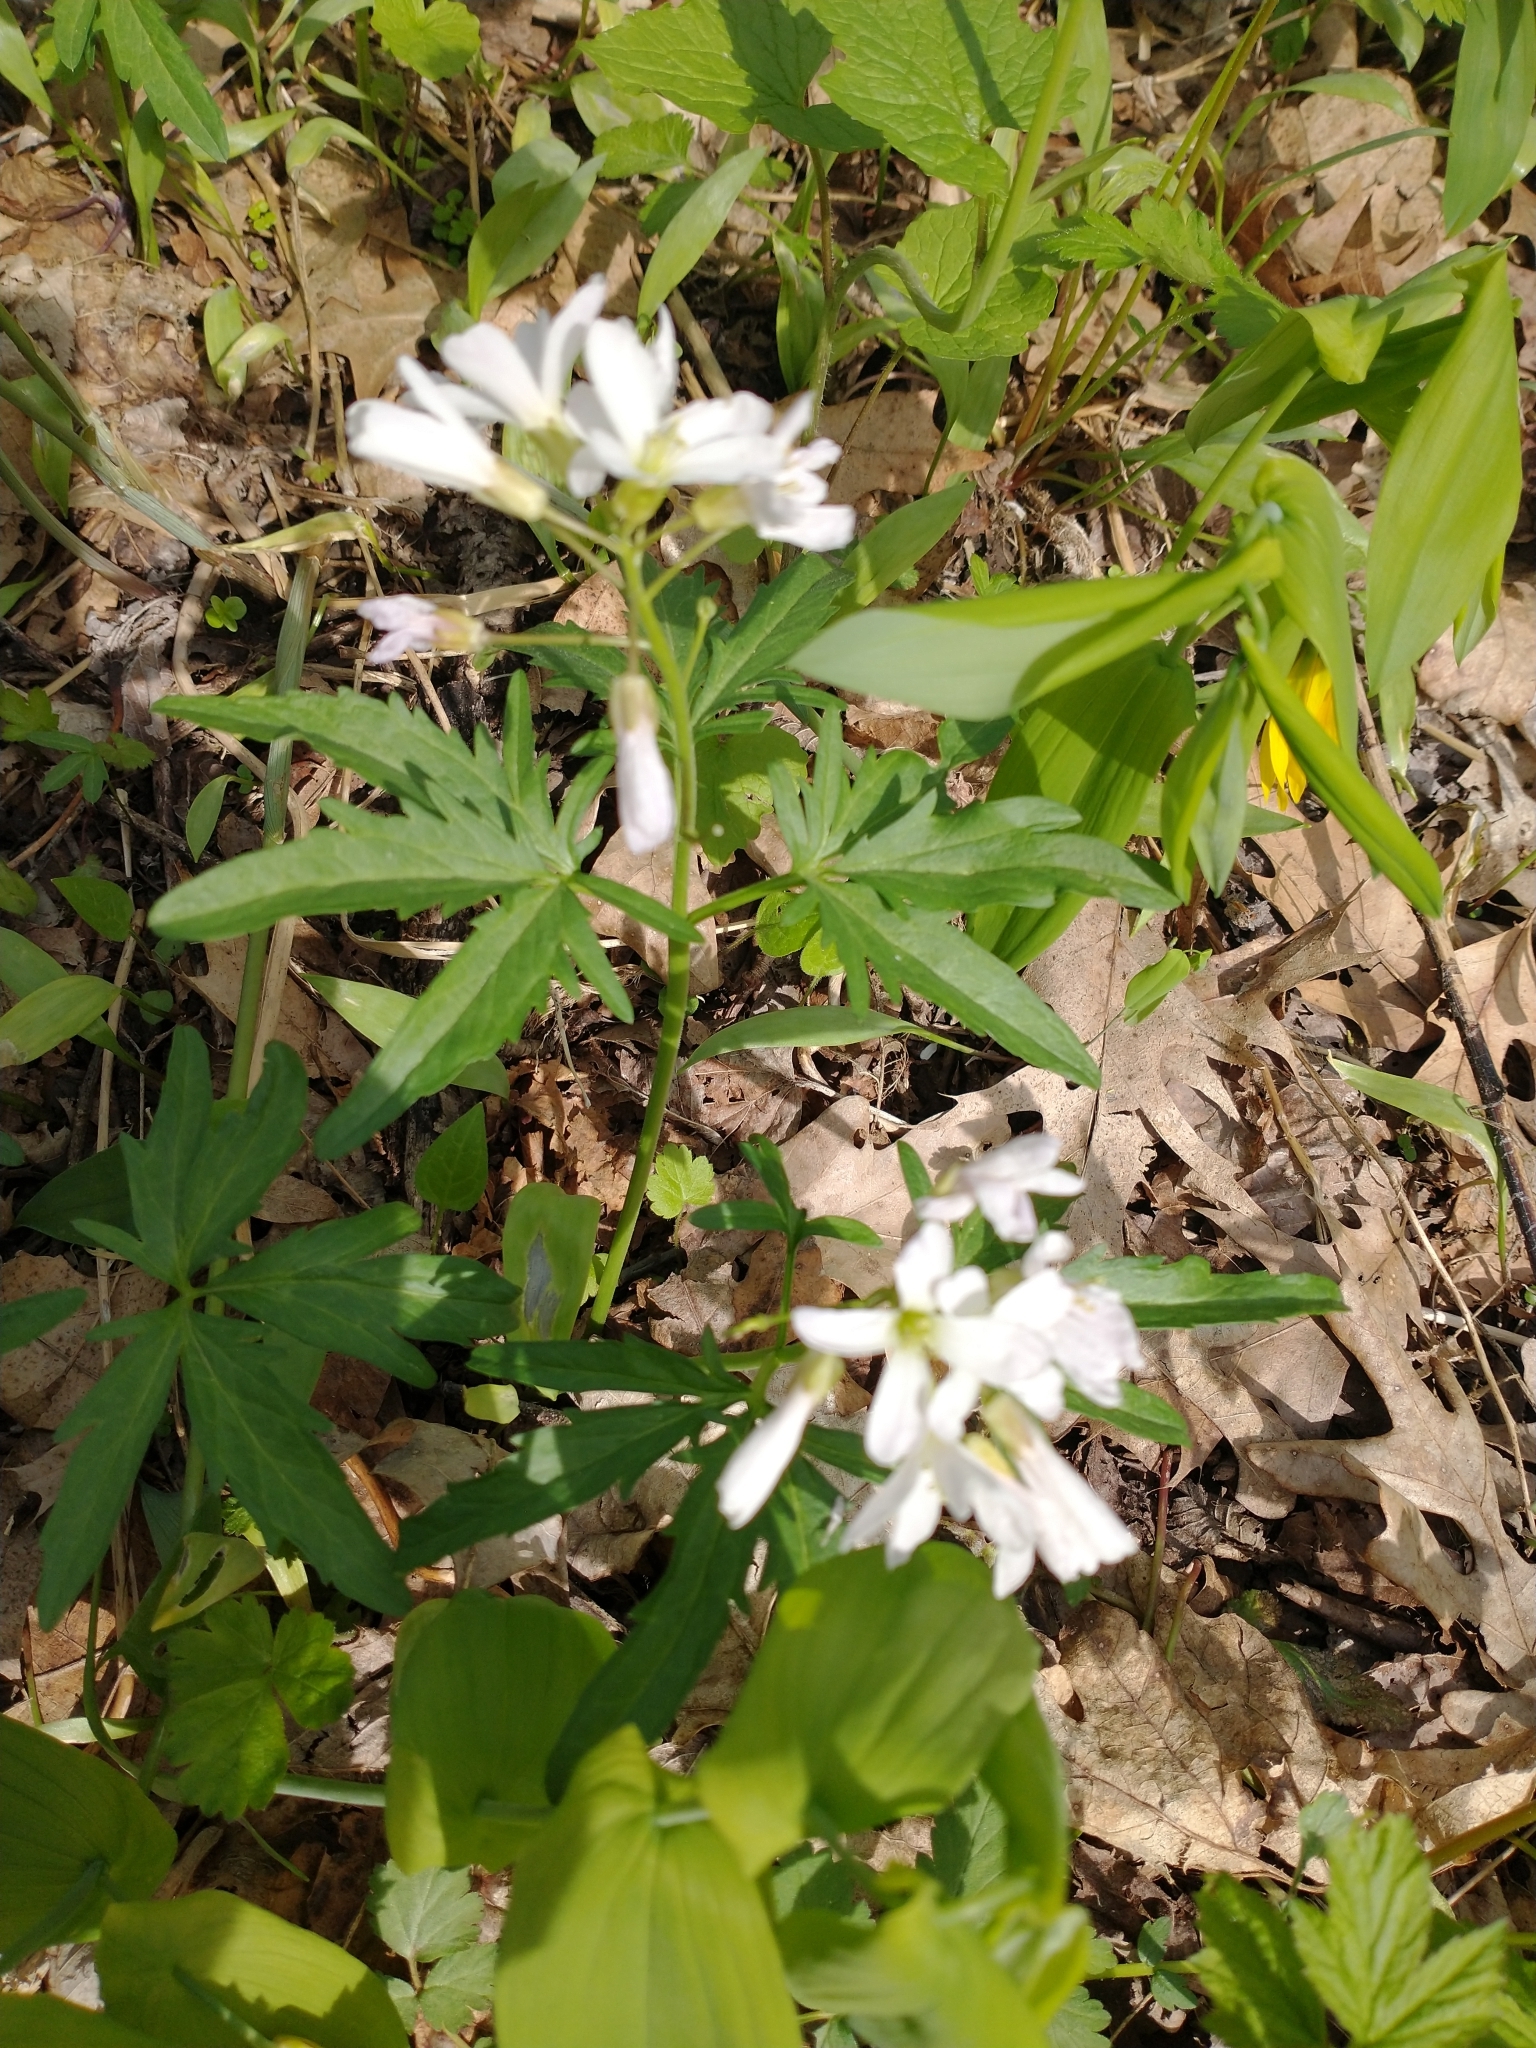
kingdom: Plantae
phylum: Tracheophyta
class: Magnoliopsida
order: Brassicales
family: Brassicaceae
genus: Cardamine
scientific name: Cardamine concatenata
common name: Cut-leaf toothcup
